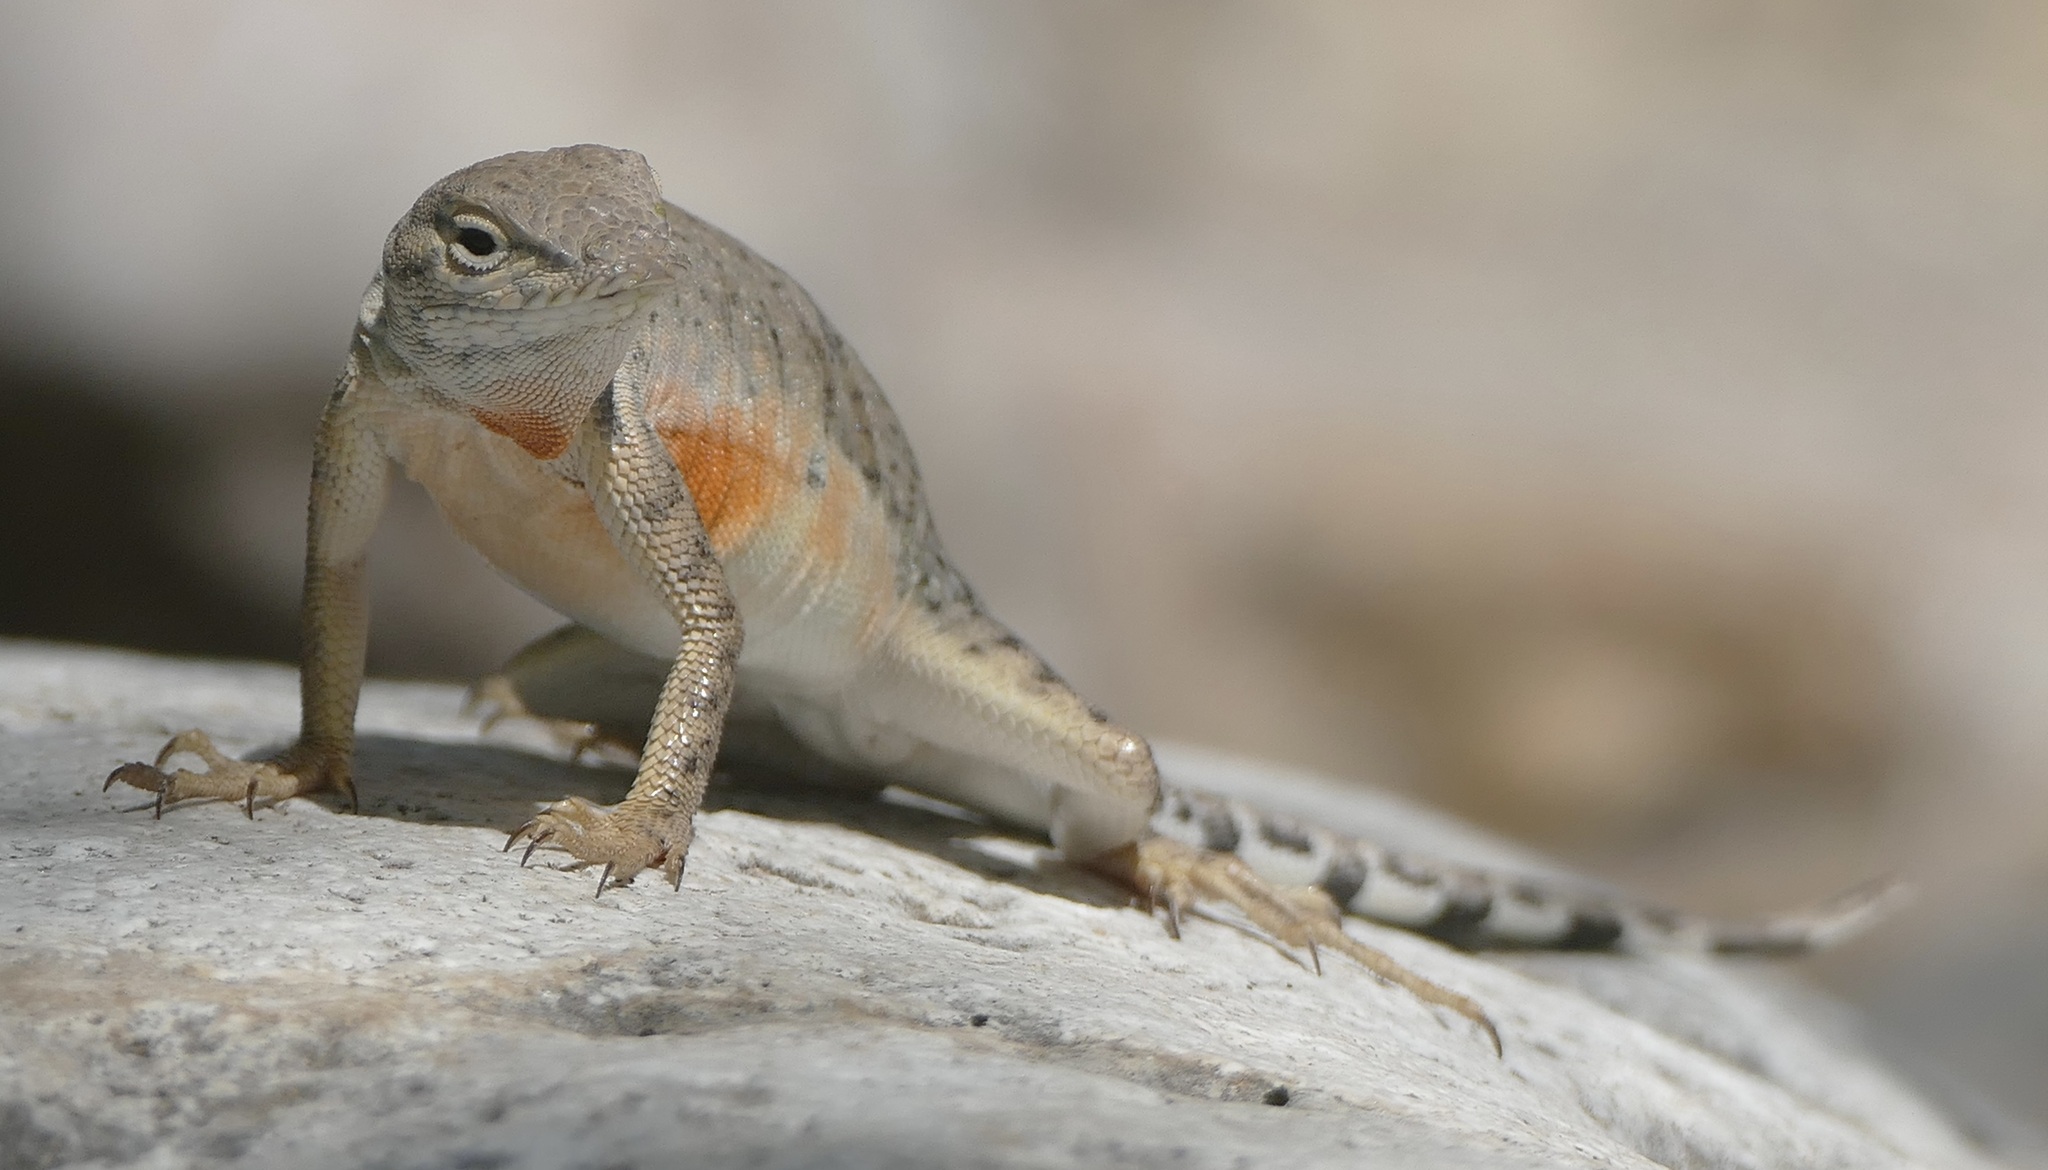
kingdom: Animalia
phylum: Chordata
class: Squamata
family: Phrynosomatidae
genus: Cophosaurus
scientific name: Cophosaurus texanus
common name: Greater earless lizard
